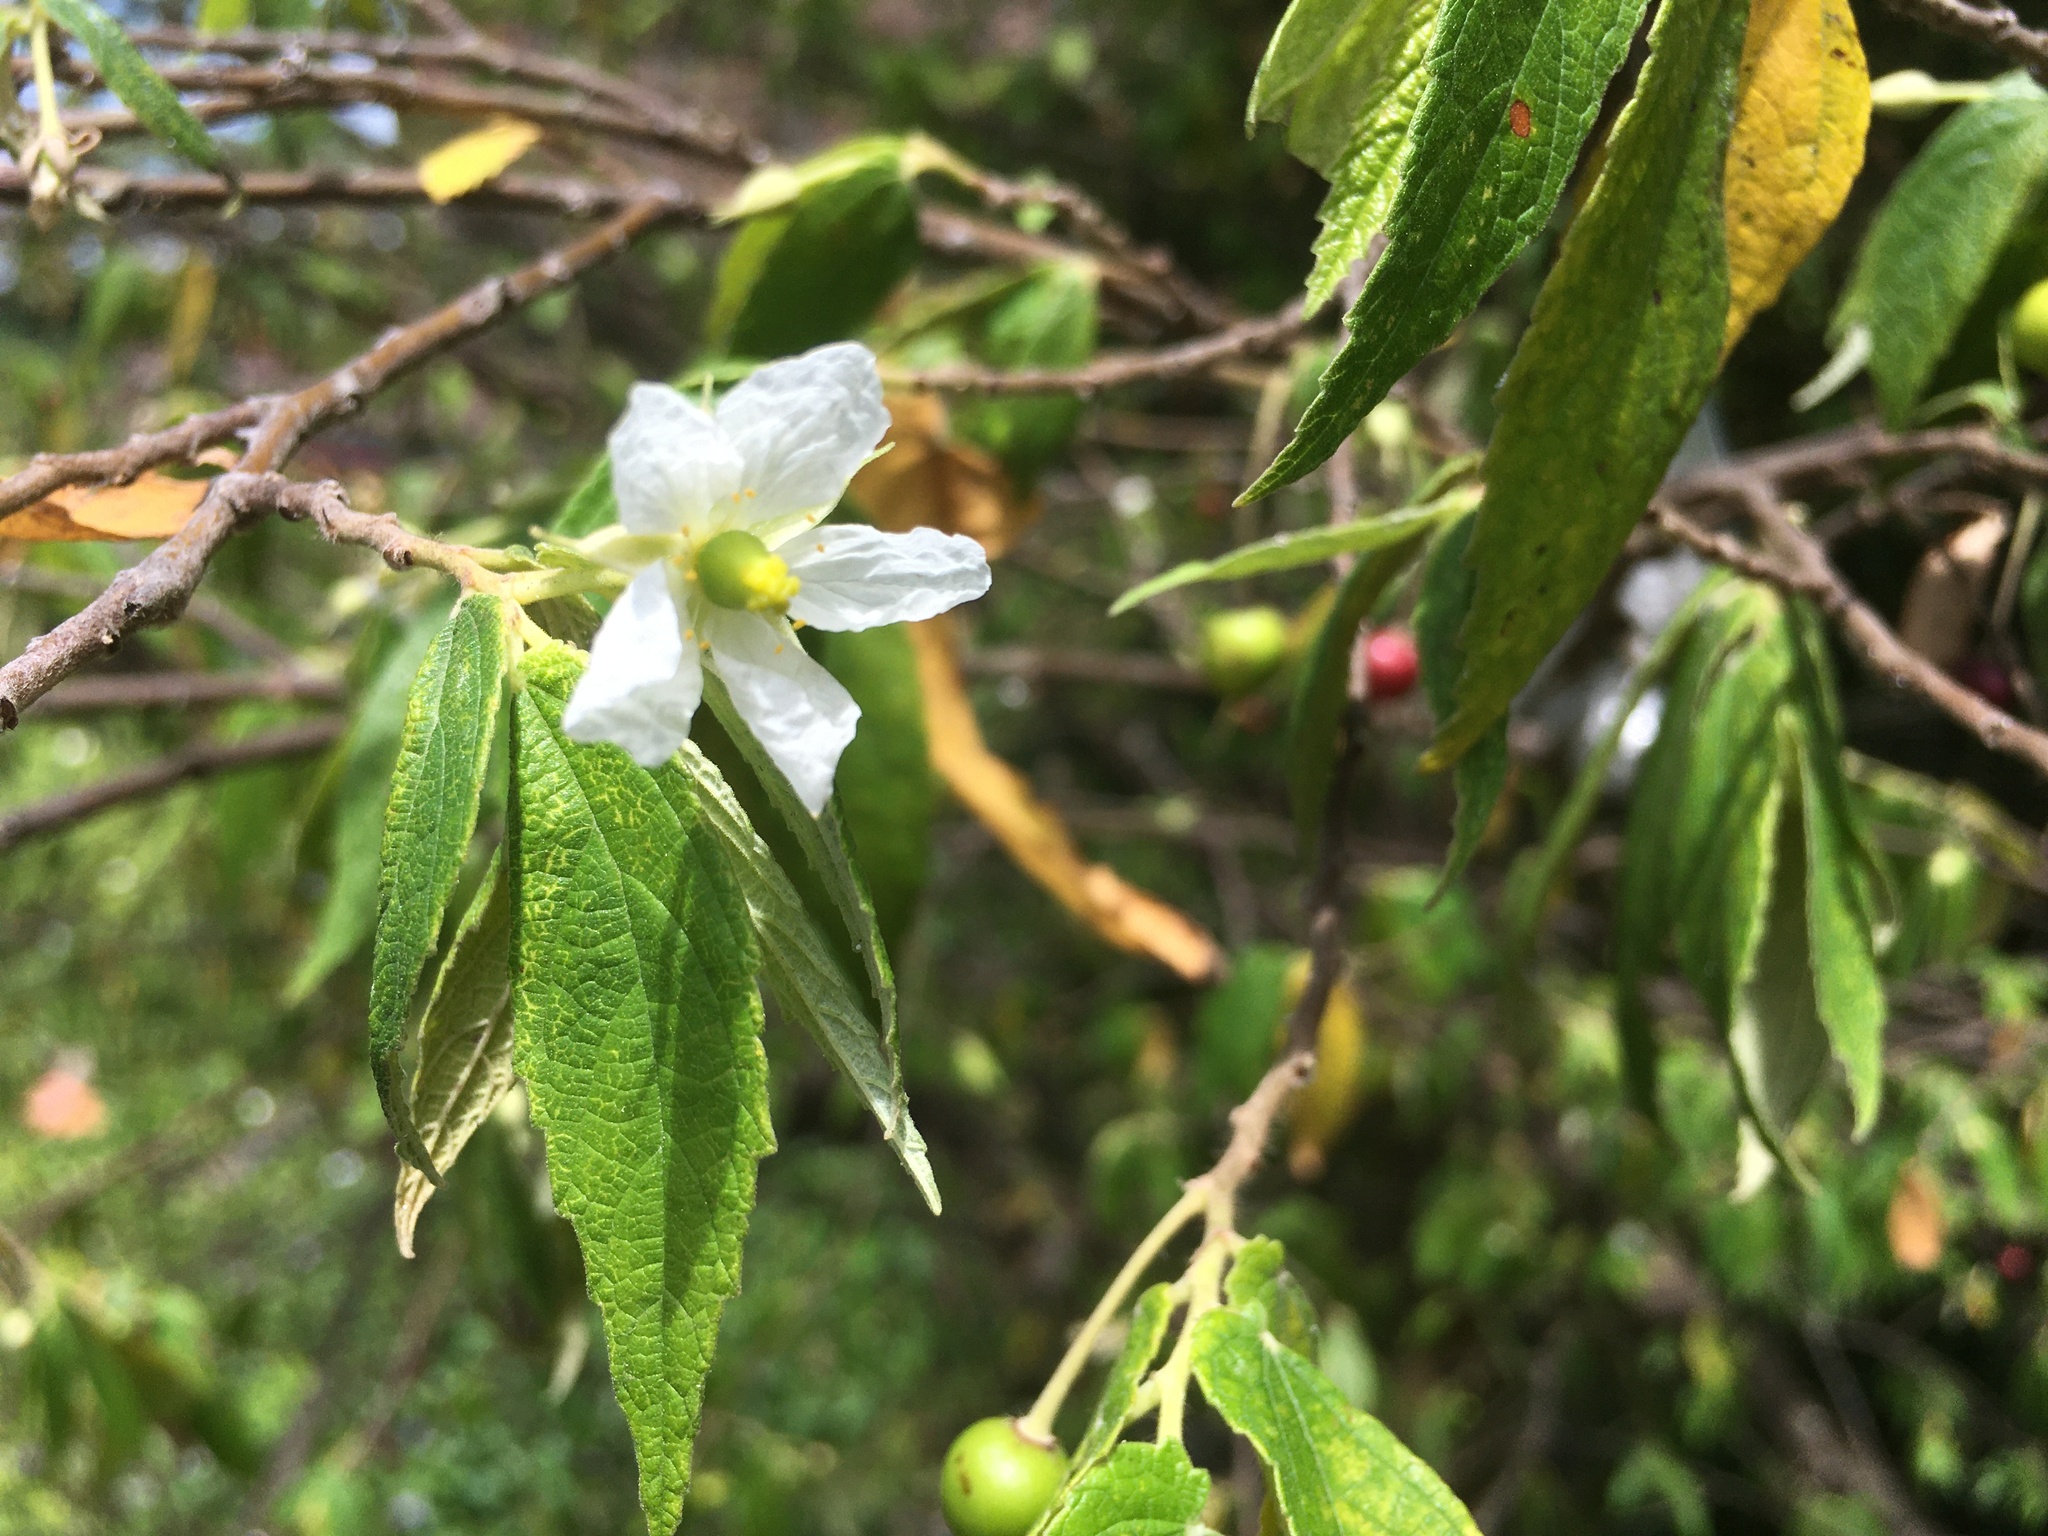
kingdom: Plantae
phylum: Tracheophyta
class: Magnoliopsida
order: Malvales
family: Muntingiaceae
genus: Muntingia
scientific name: Muntingia calabura
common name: Strawberrytree
